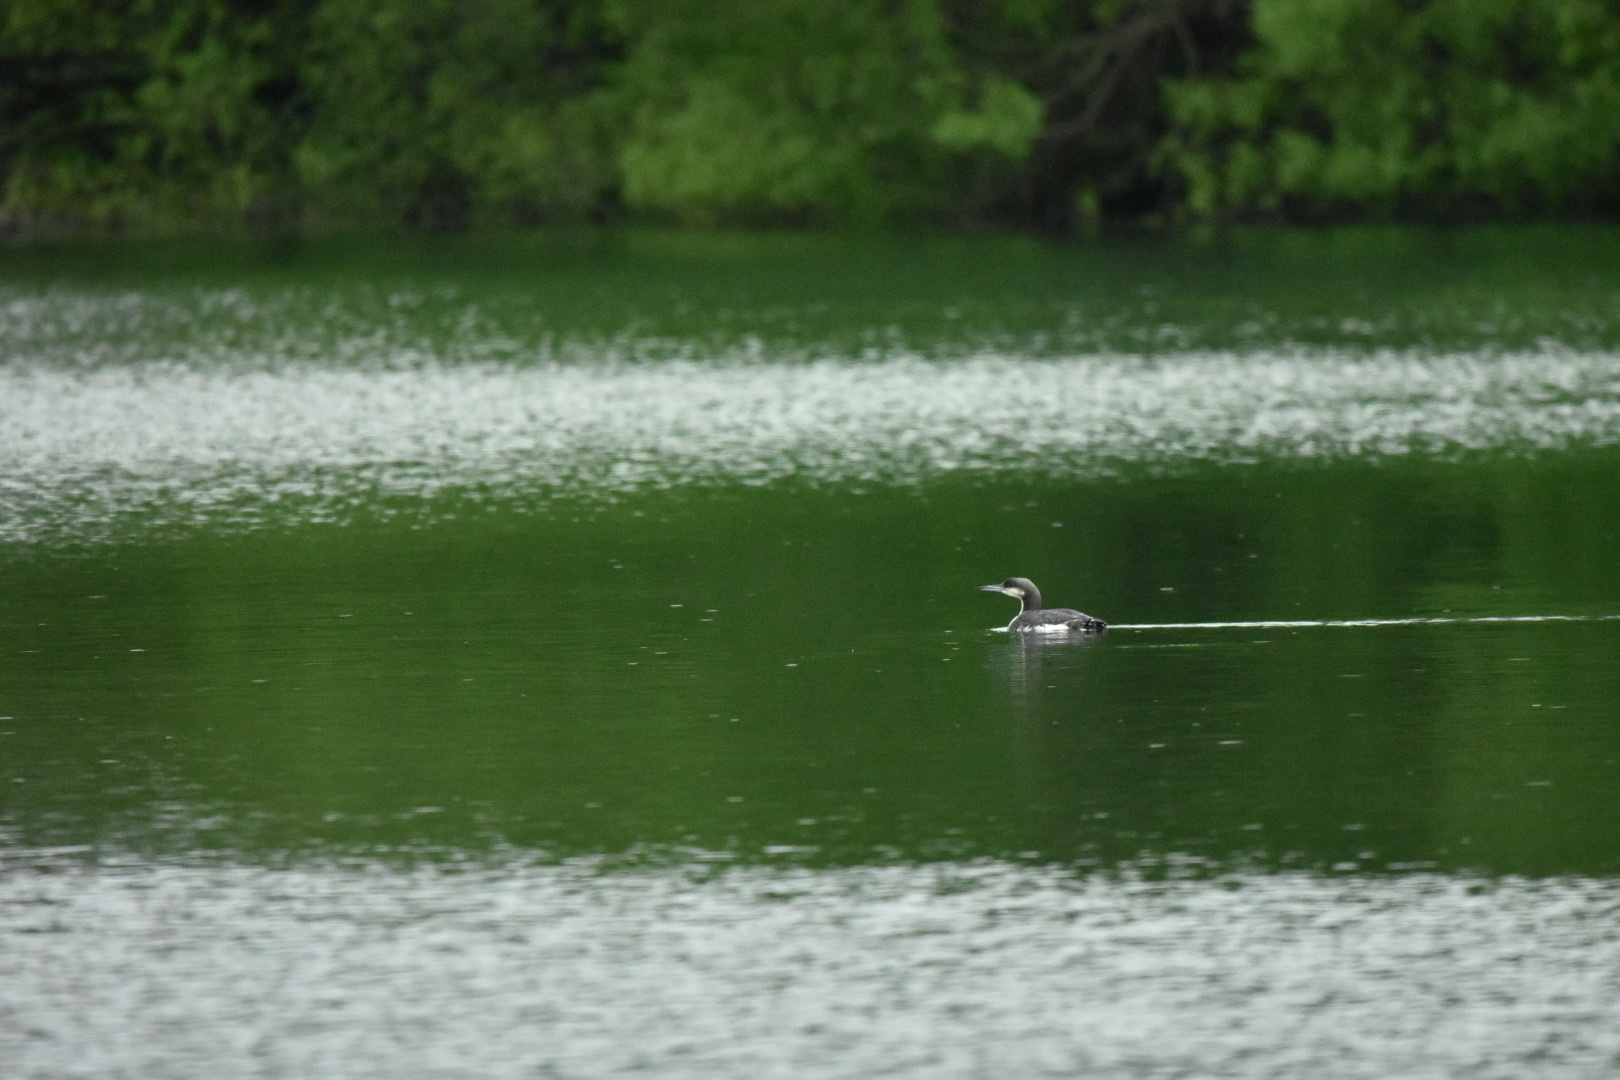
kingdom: Animalia
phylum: Chordata
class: Aves
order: Gaviiformes
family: Gaviidae
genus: Gavia
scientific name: Gavia arctica
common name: Black-throated loon
